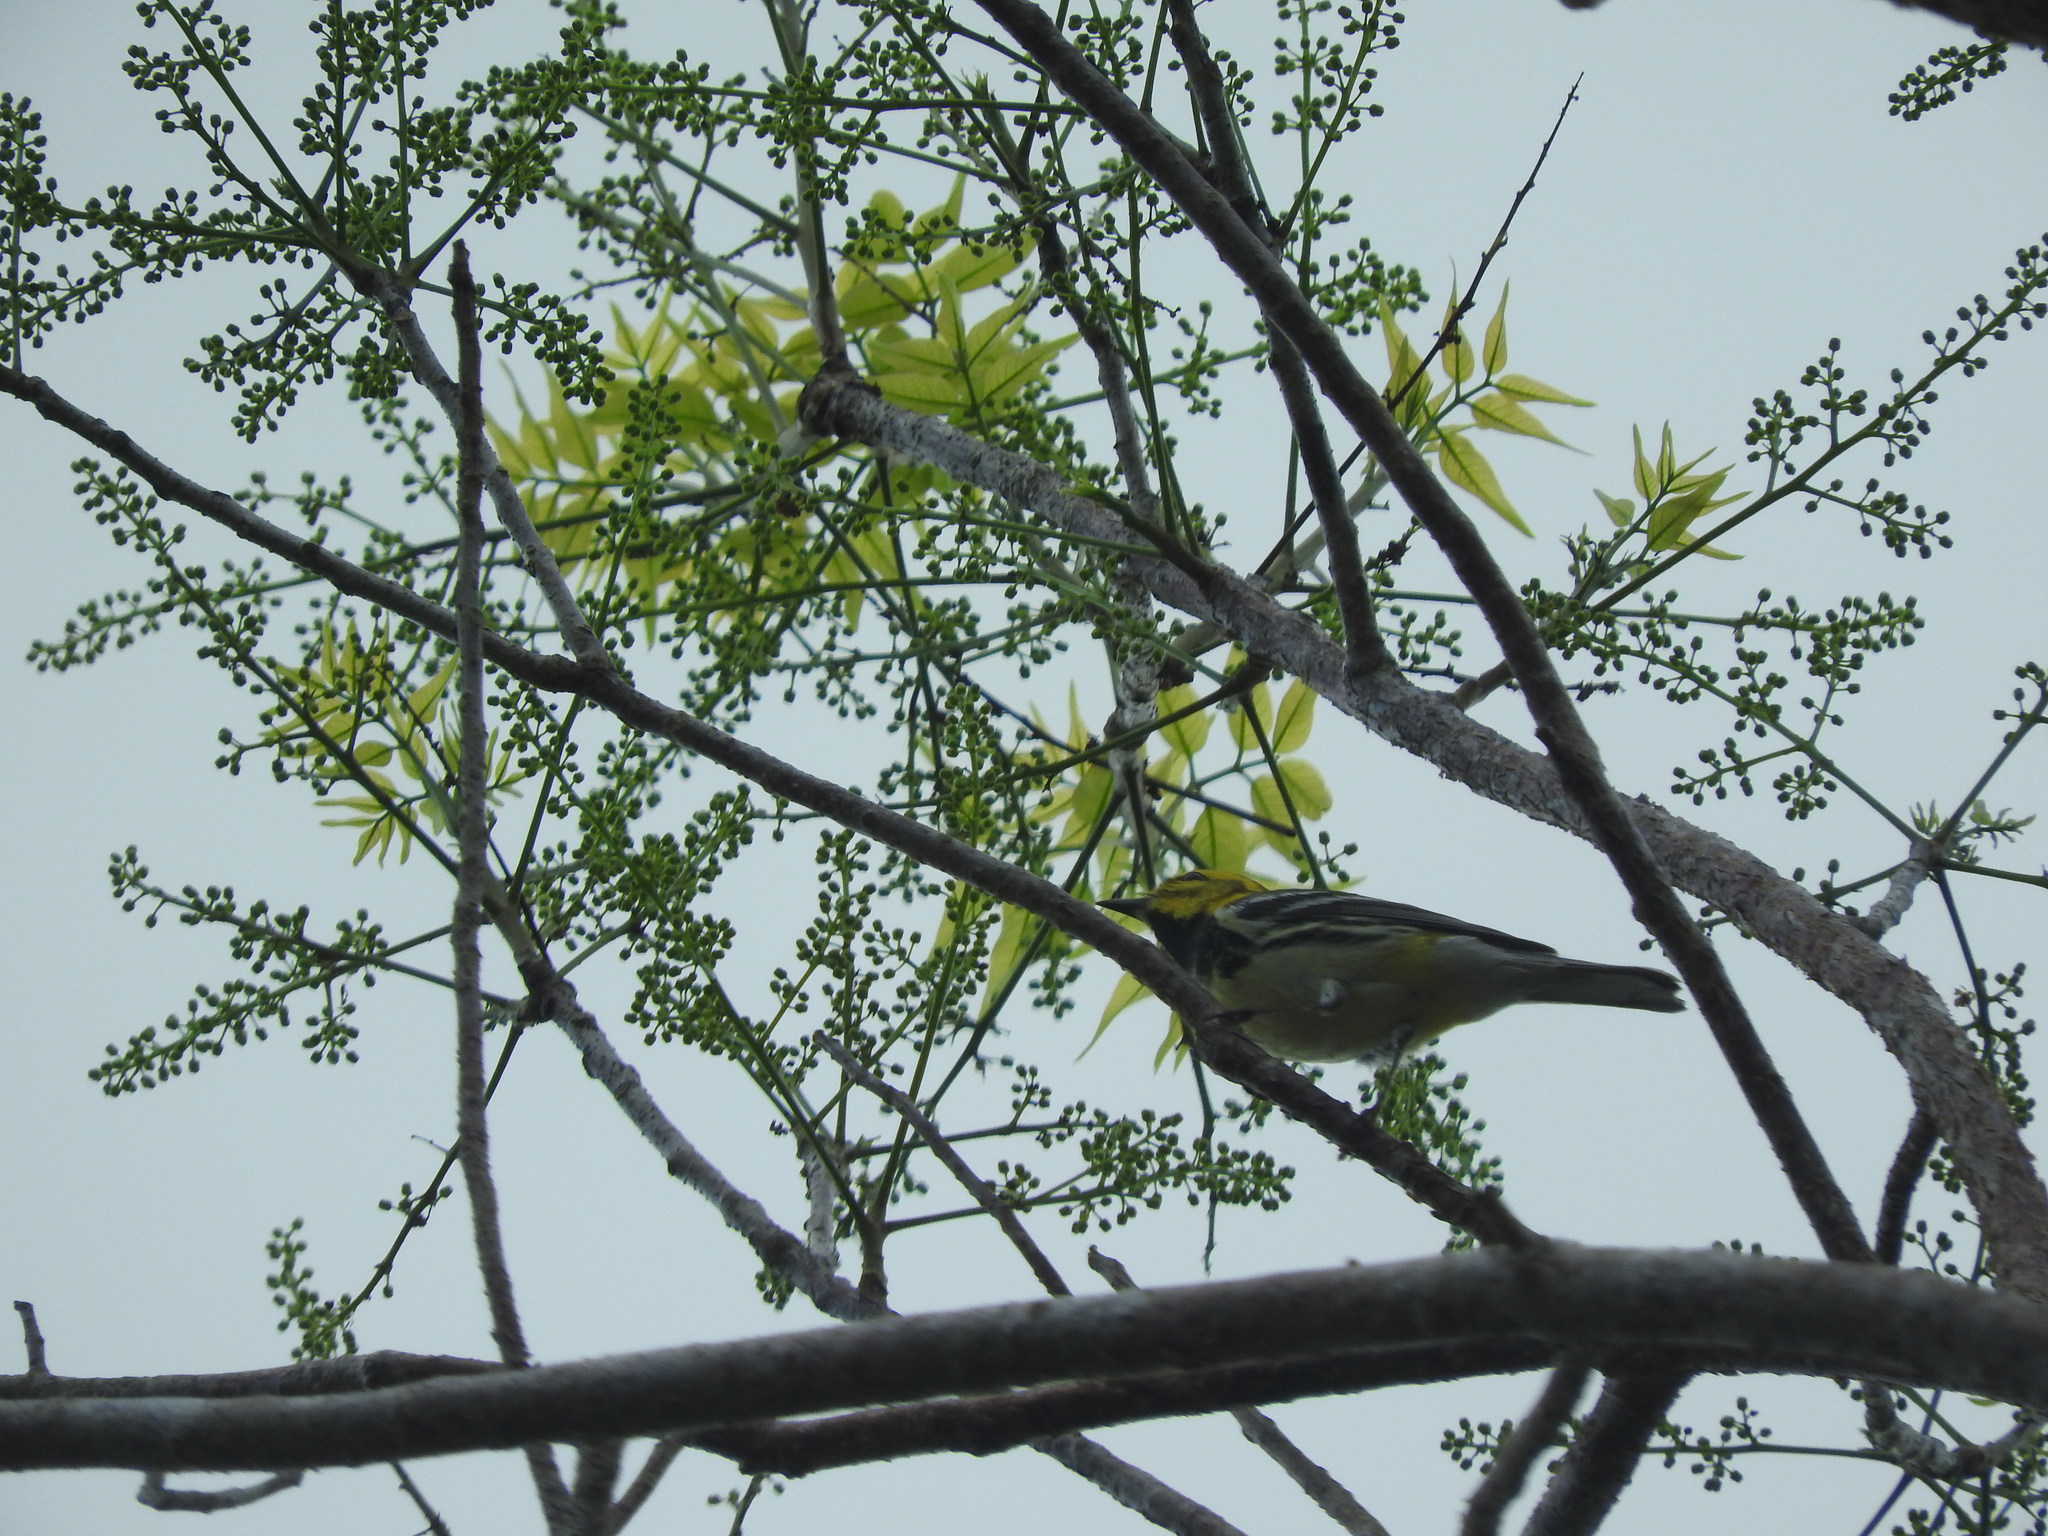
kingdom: Animalia
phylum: Chordata
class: Aves
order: Passeriformes
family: Parulidae
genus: Setophaga
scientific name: Setophaga virens
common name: Black-throated green warbler
